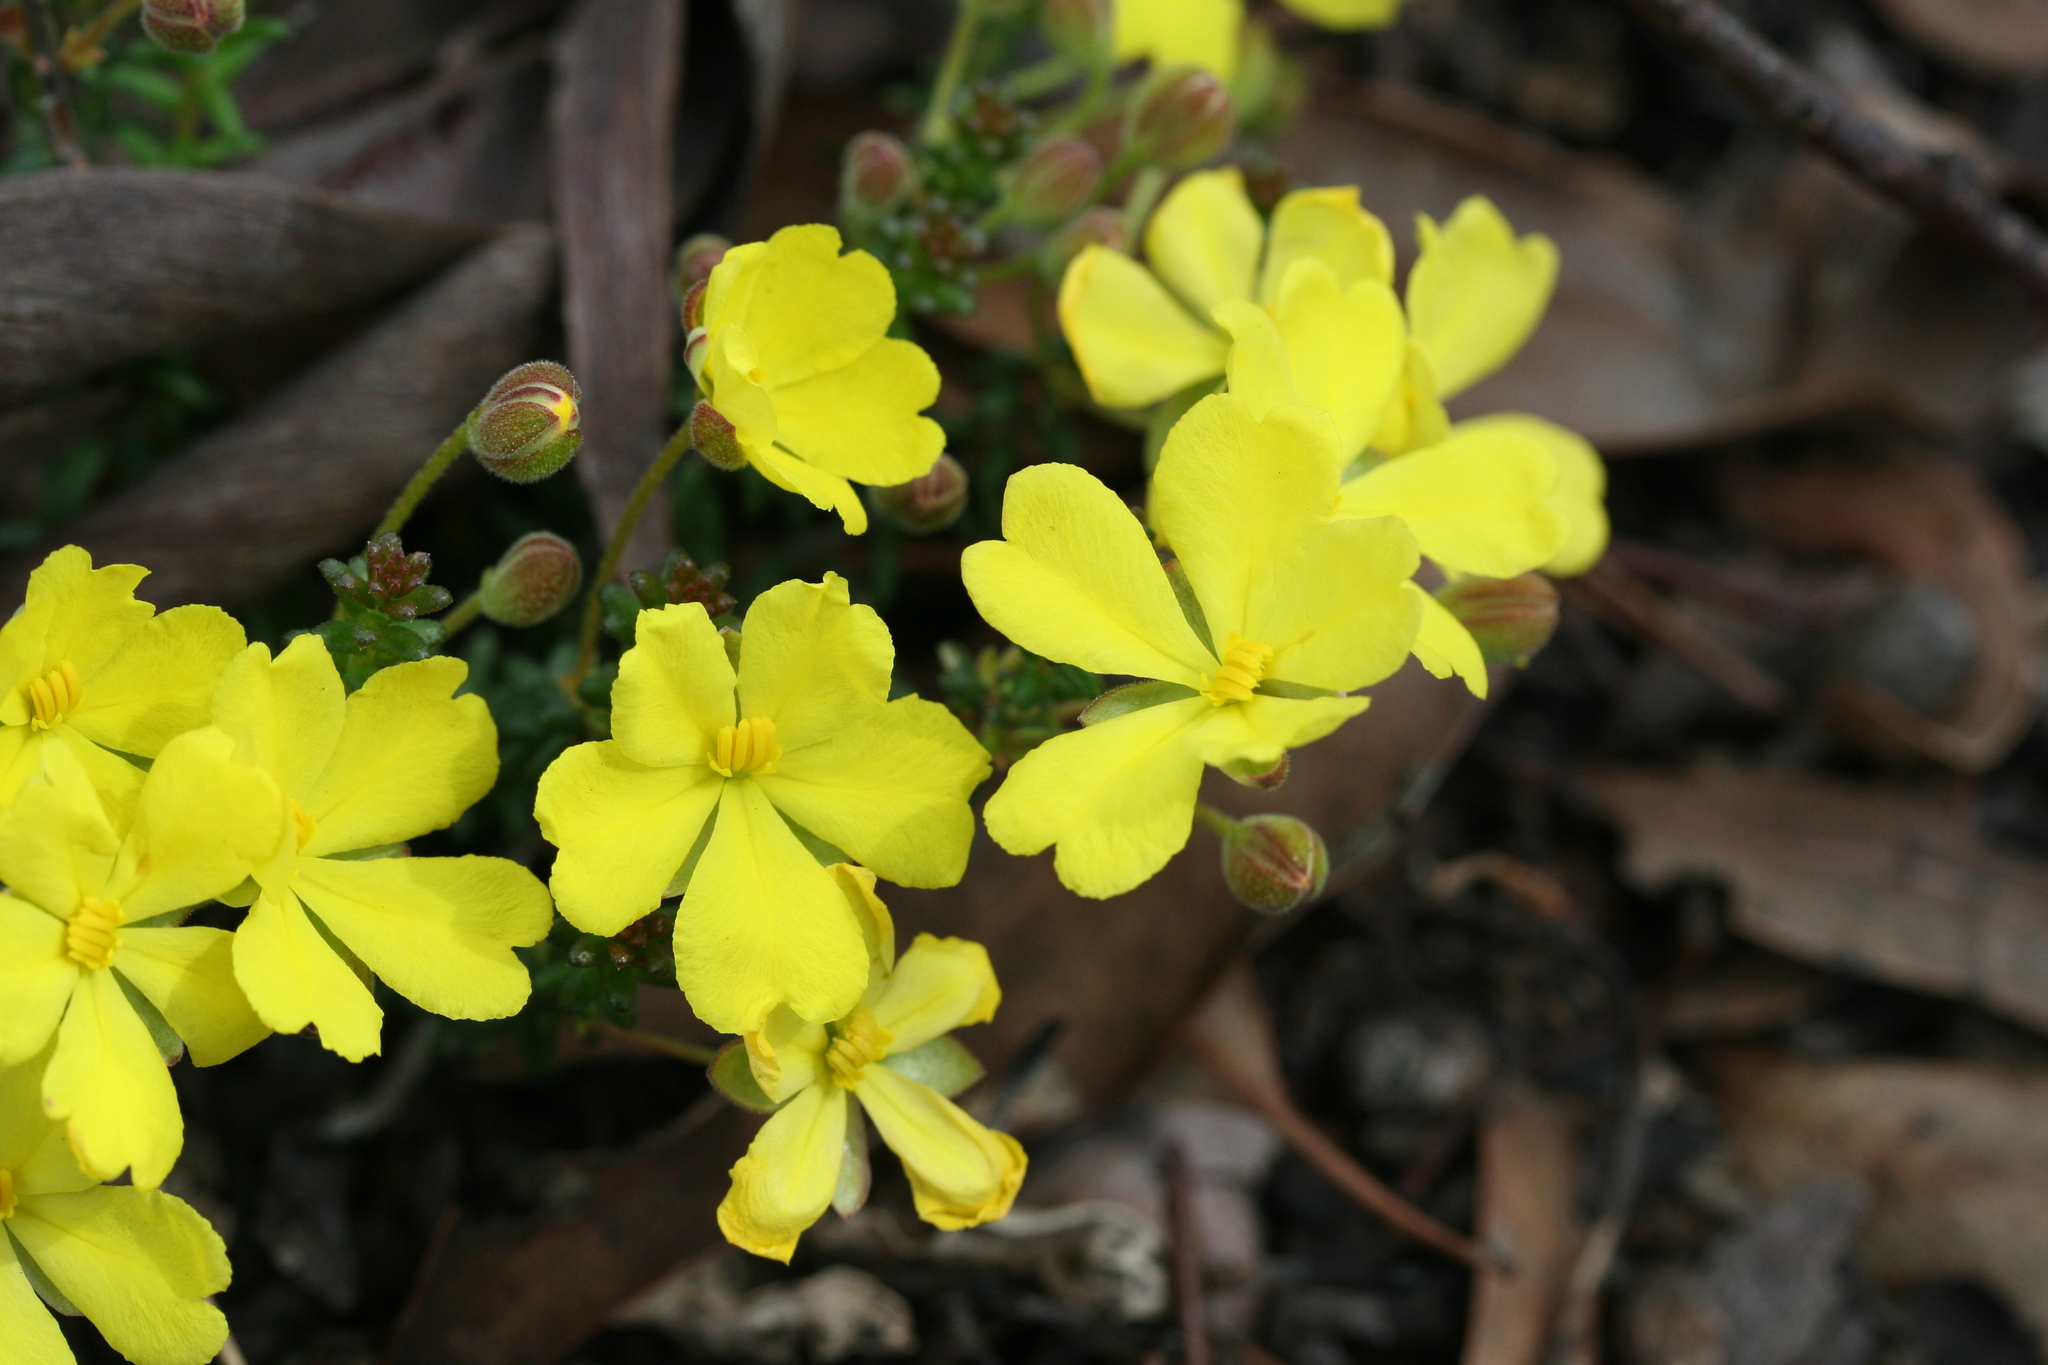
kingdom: Plantae
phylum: Tracheophyta
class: Magnoliopsida
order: Dilleniales
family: Dilleniaceae
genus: Hibbertia
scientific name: Hibbertia polyancistra
